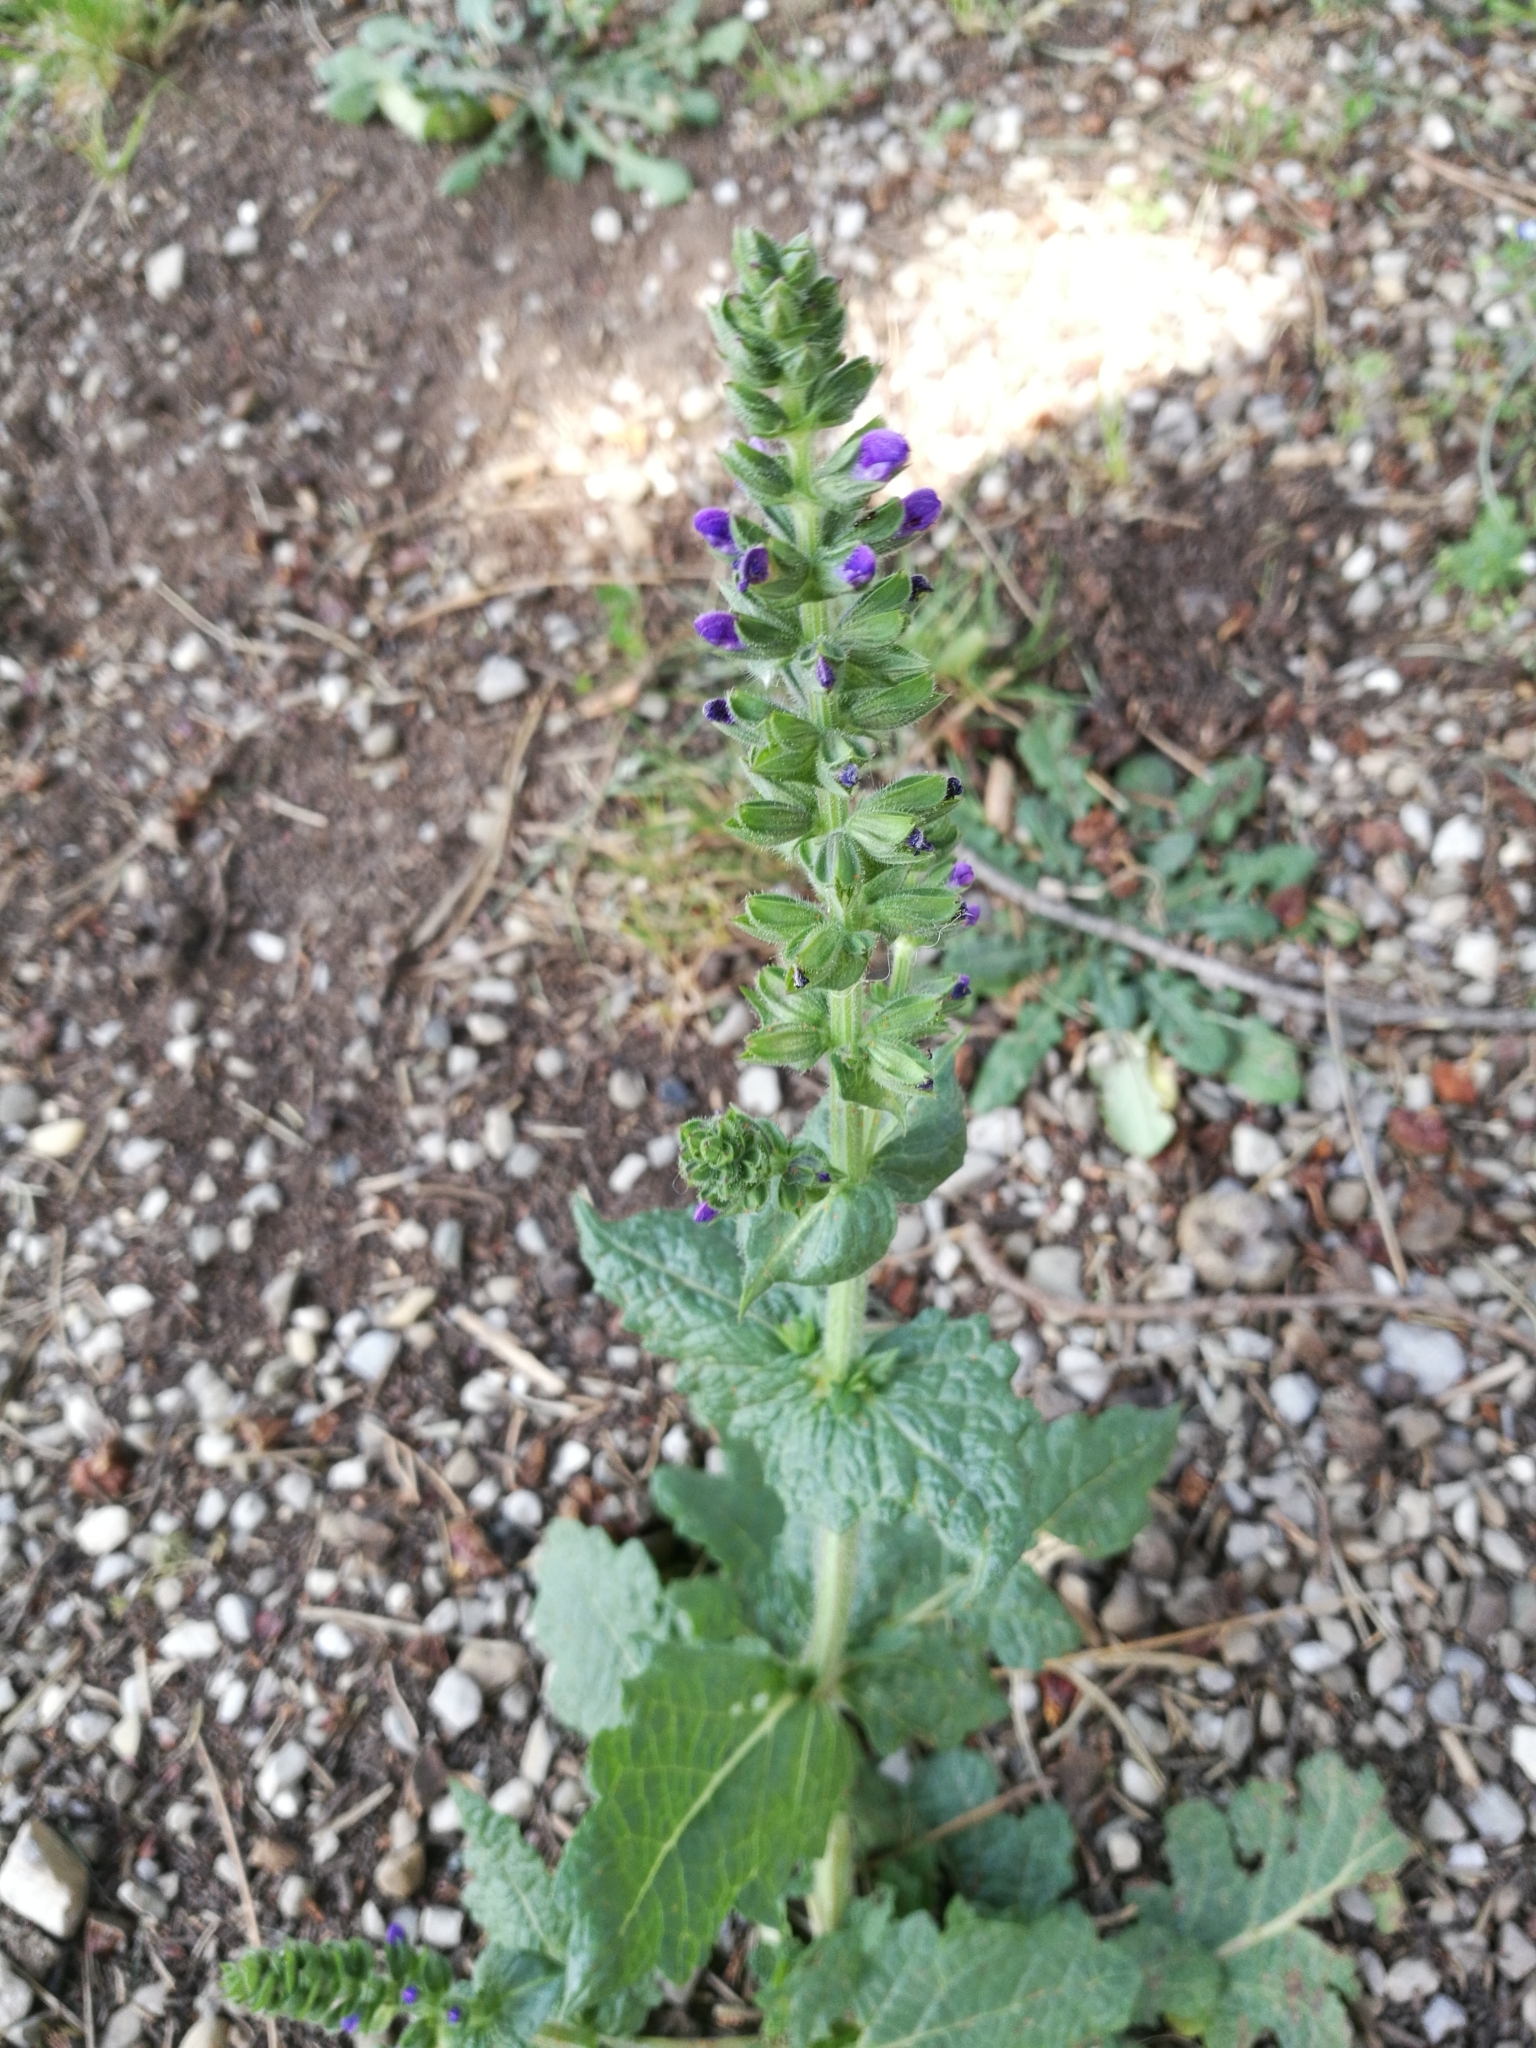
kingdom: Plantae
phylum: Tracheophyta
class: Magnoliopsida
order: Lamiales
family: Lamiaceae
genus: Salvia
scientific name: Salvia verbenaca
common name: Wild clary
